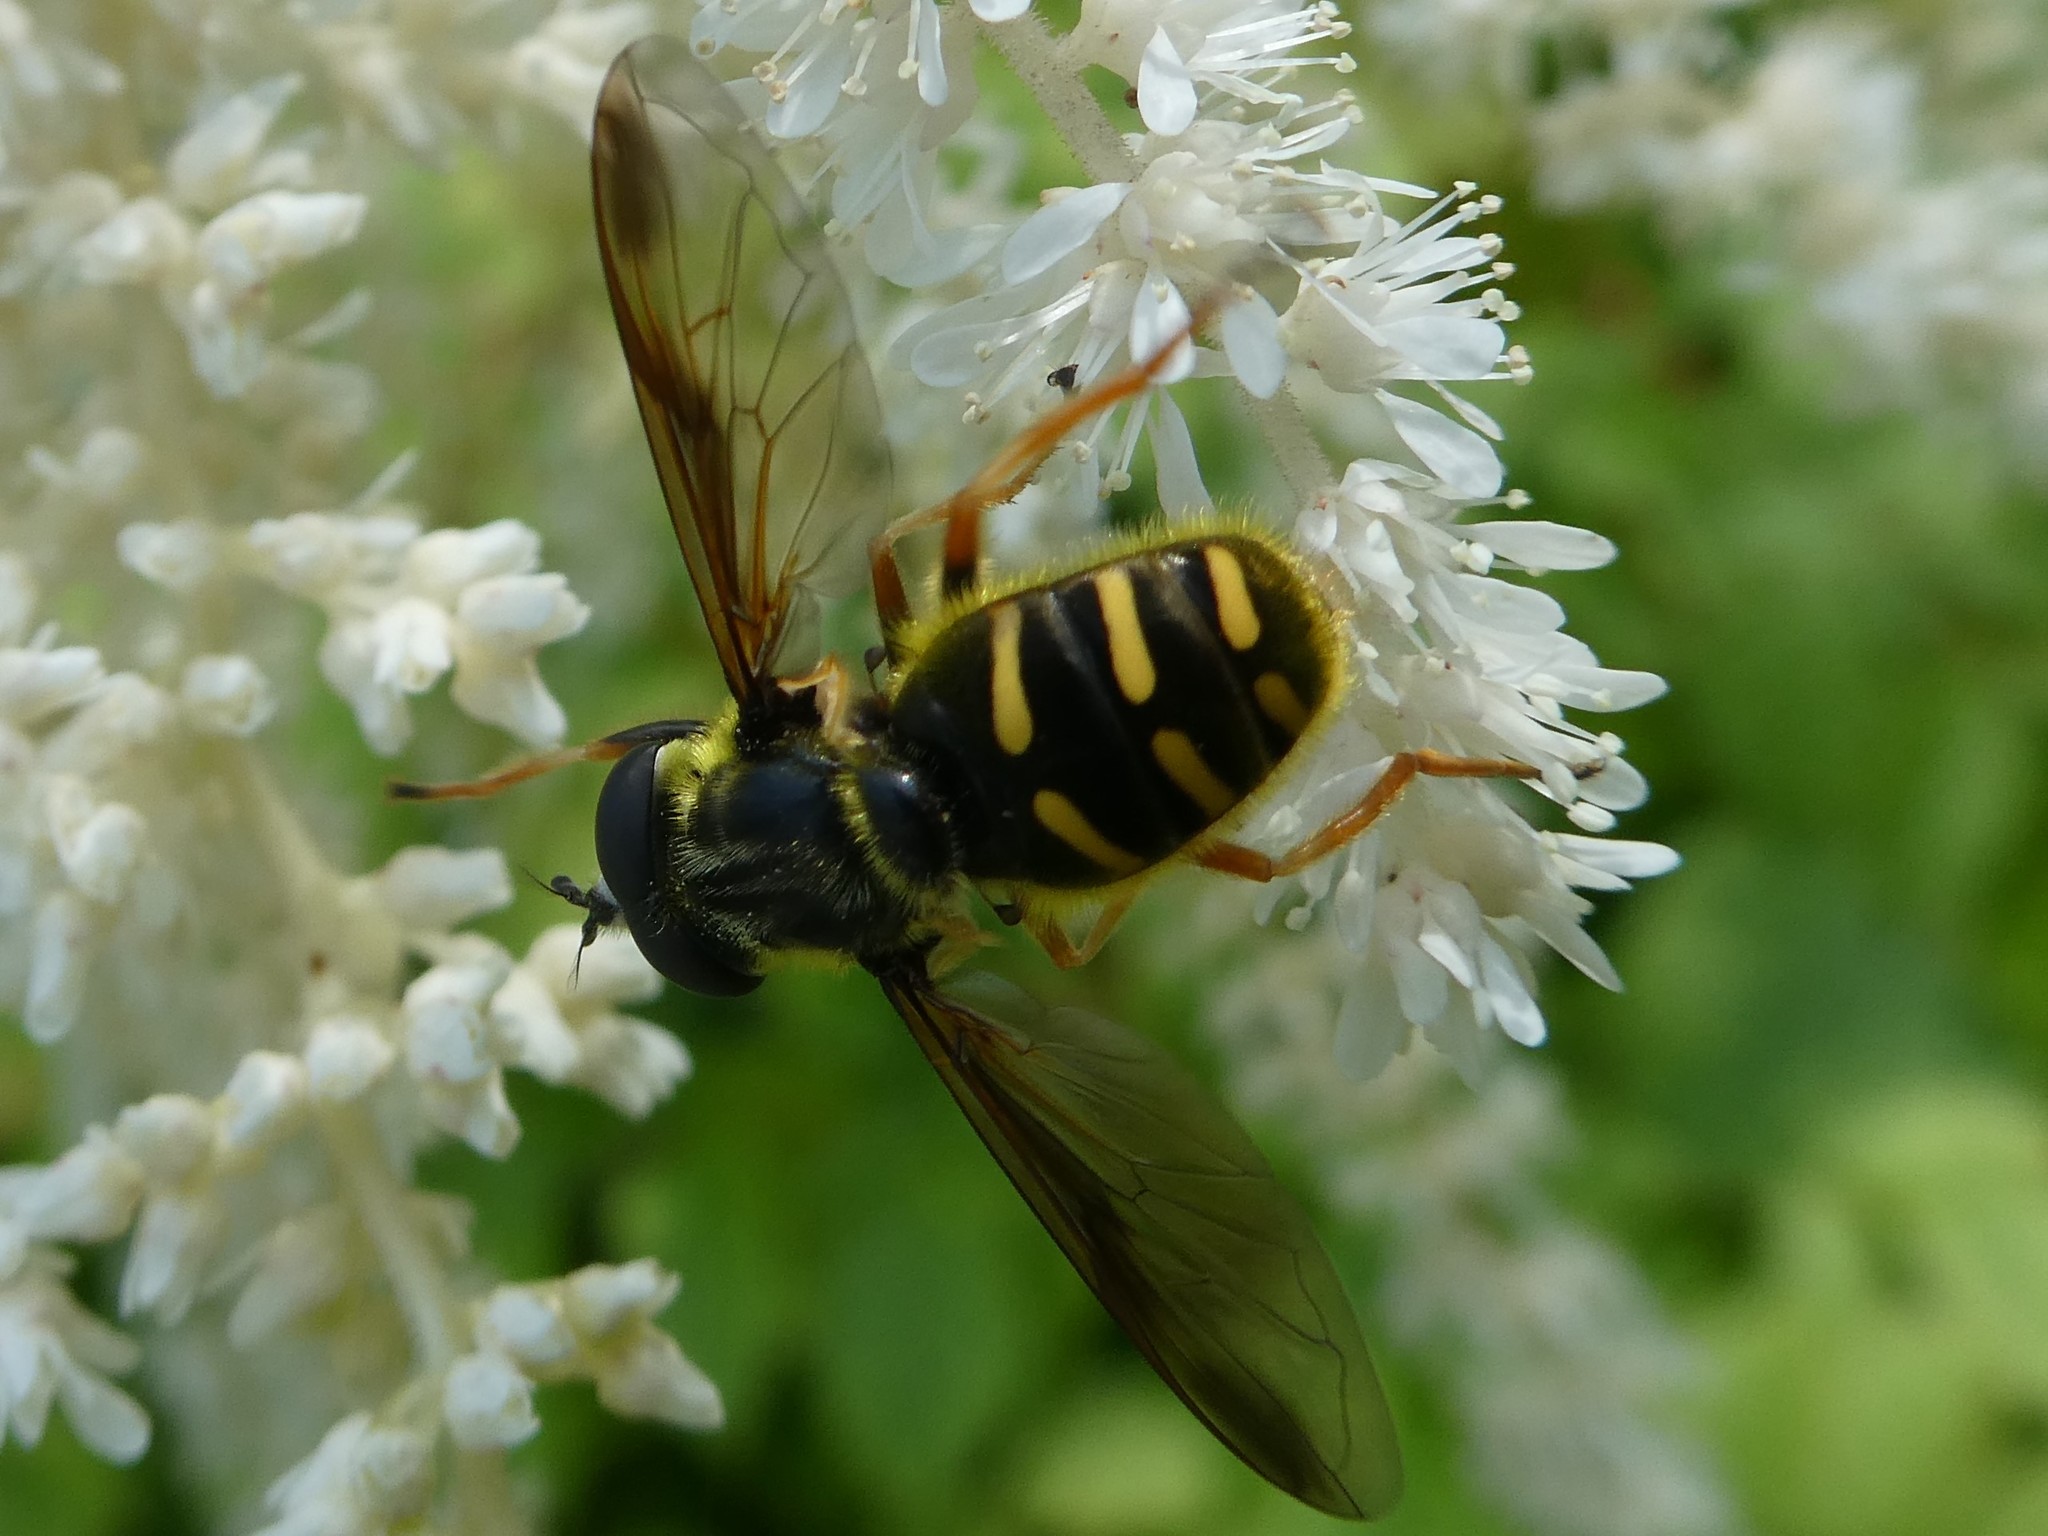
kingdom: Animalia
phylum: Arthropoda
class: Insecta
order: Diptera
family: Syrphidae
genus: Sericomyia
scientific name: Sericomyia chrysotoxoides
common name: Oblique-banded pond fly
